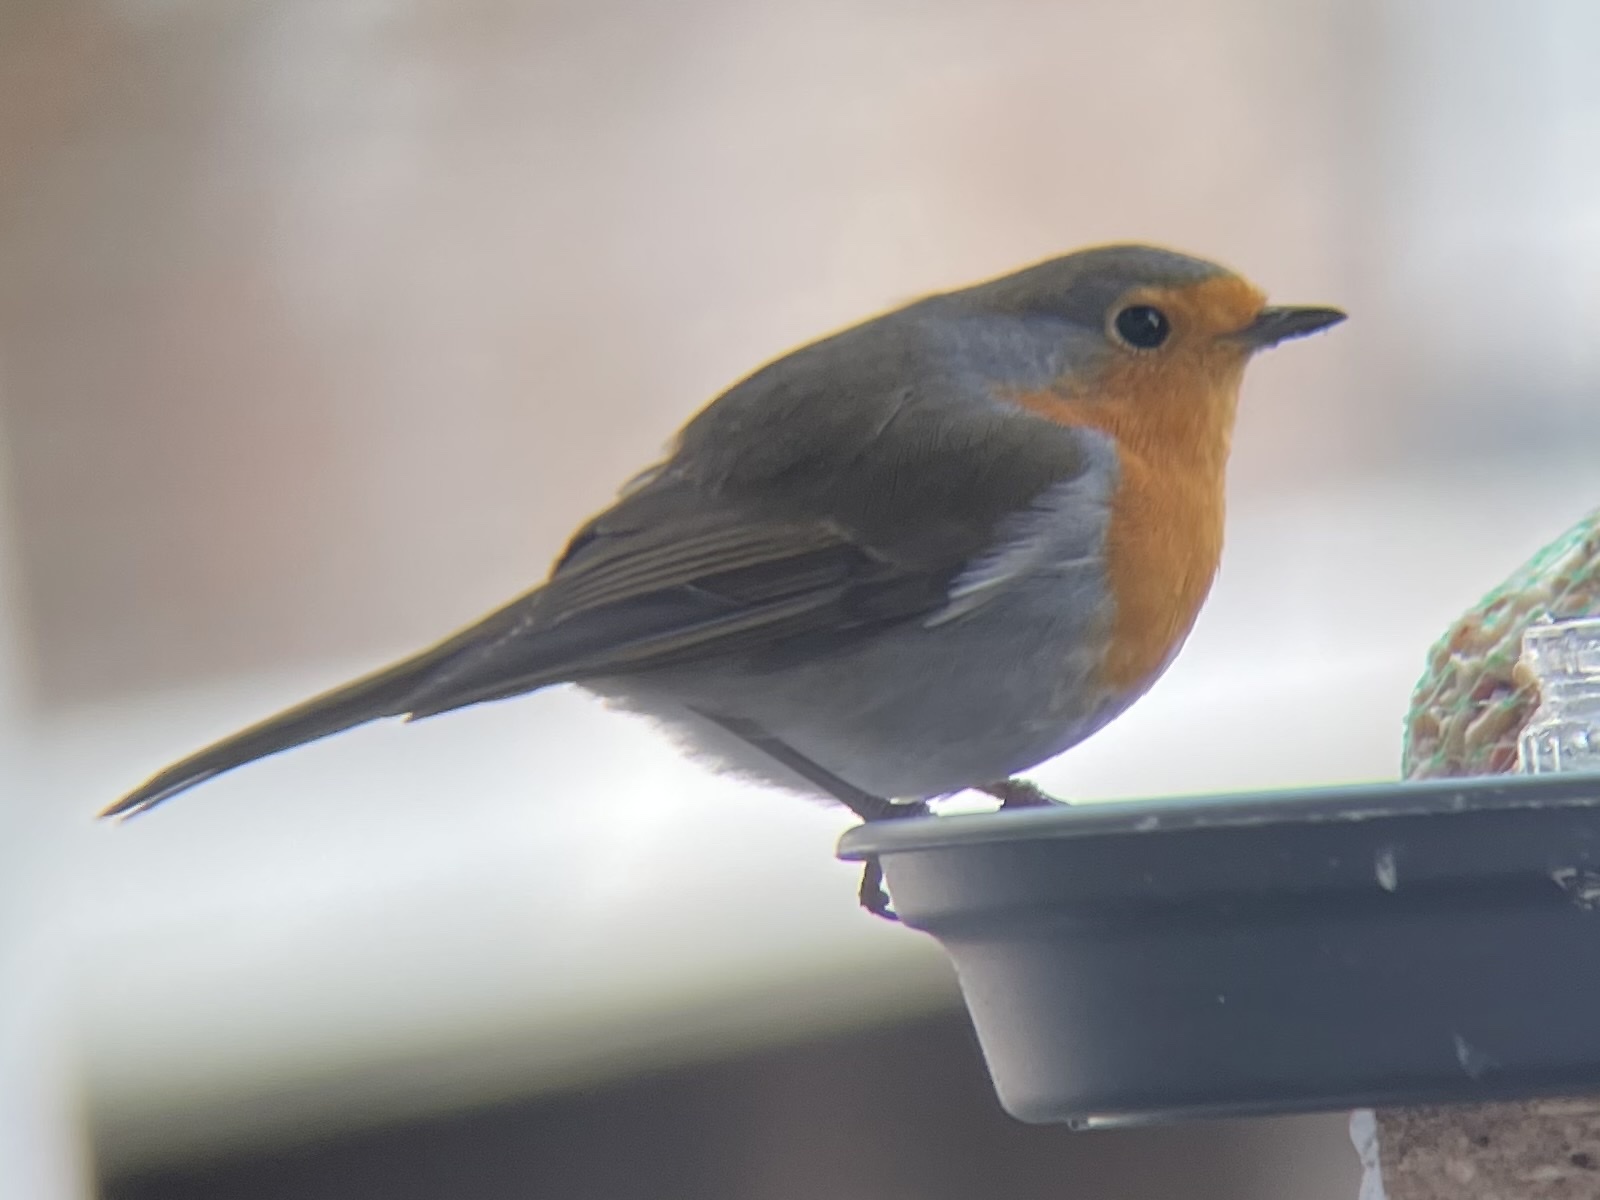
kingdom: Animalia
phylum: Chordata
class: Aves
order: Passeriformes
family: Muscicapidae
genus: Erithacus
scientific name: Erithacus rubecula
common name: European robin
